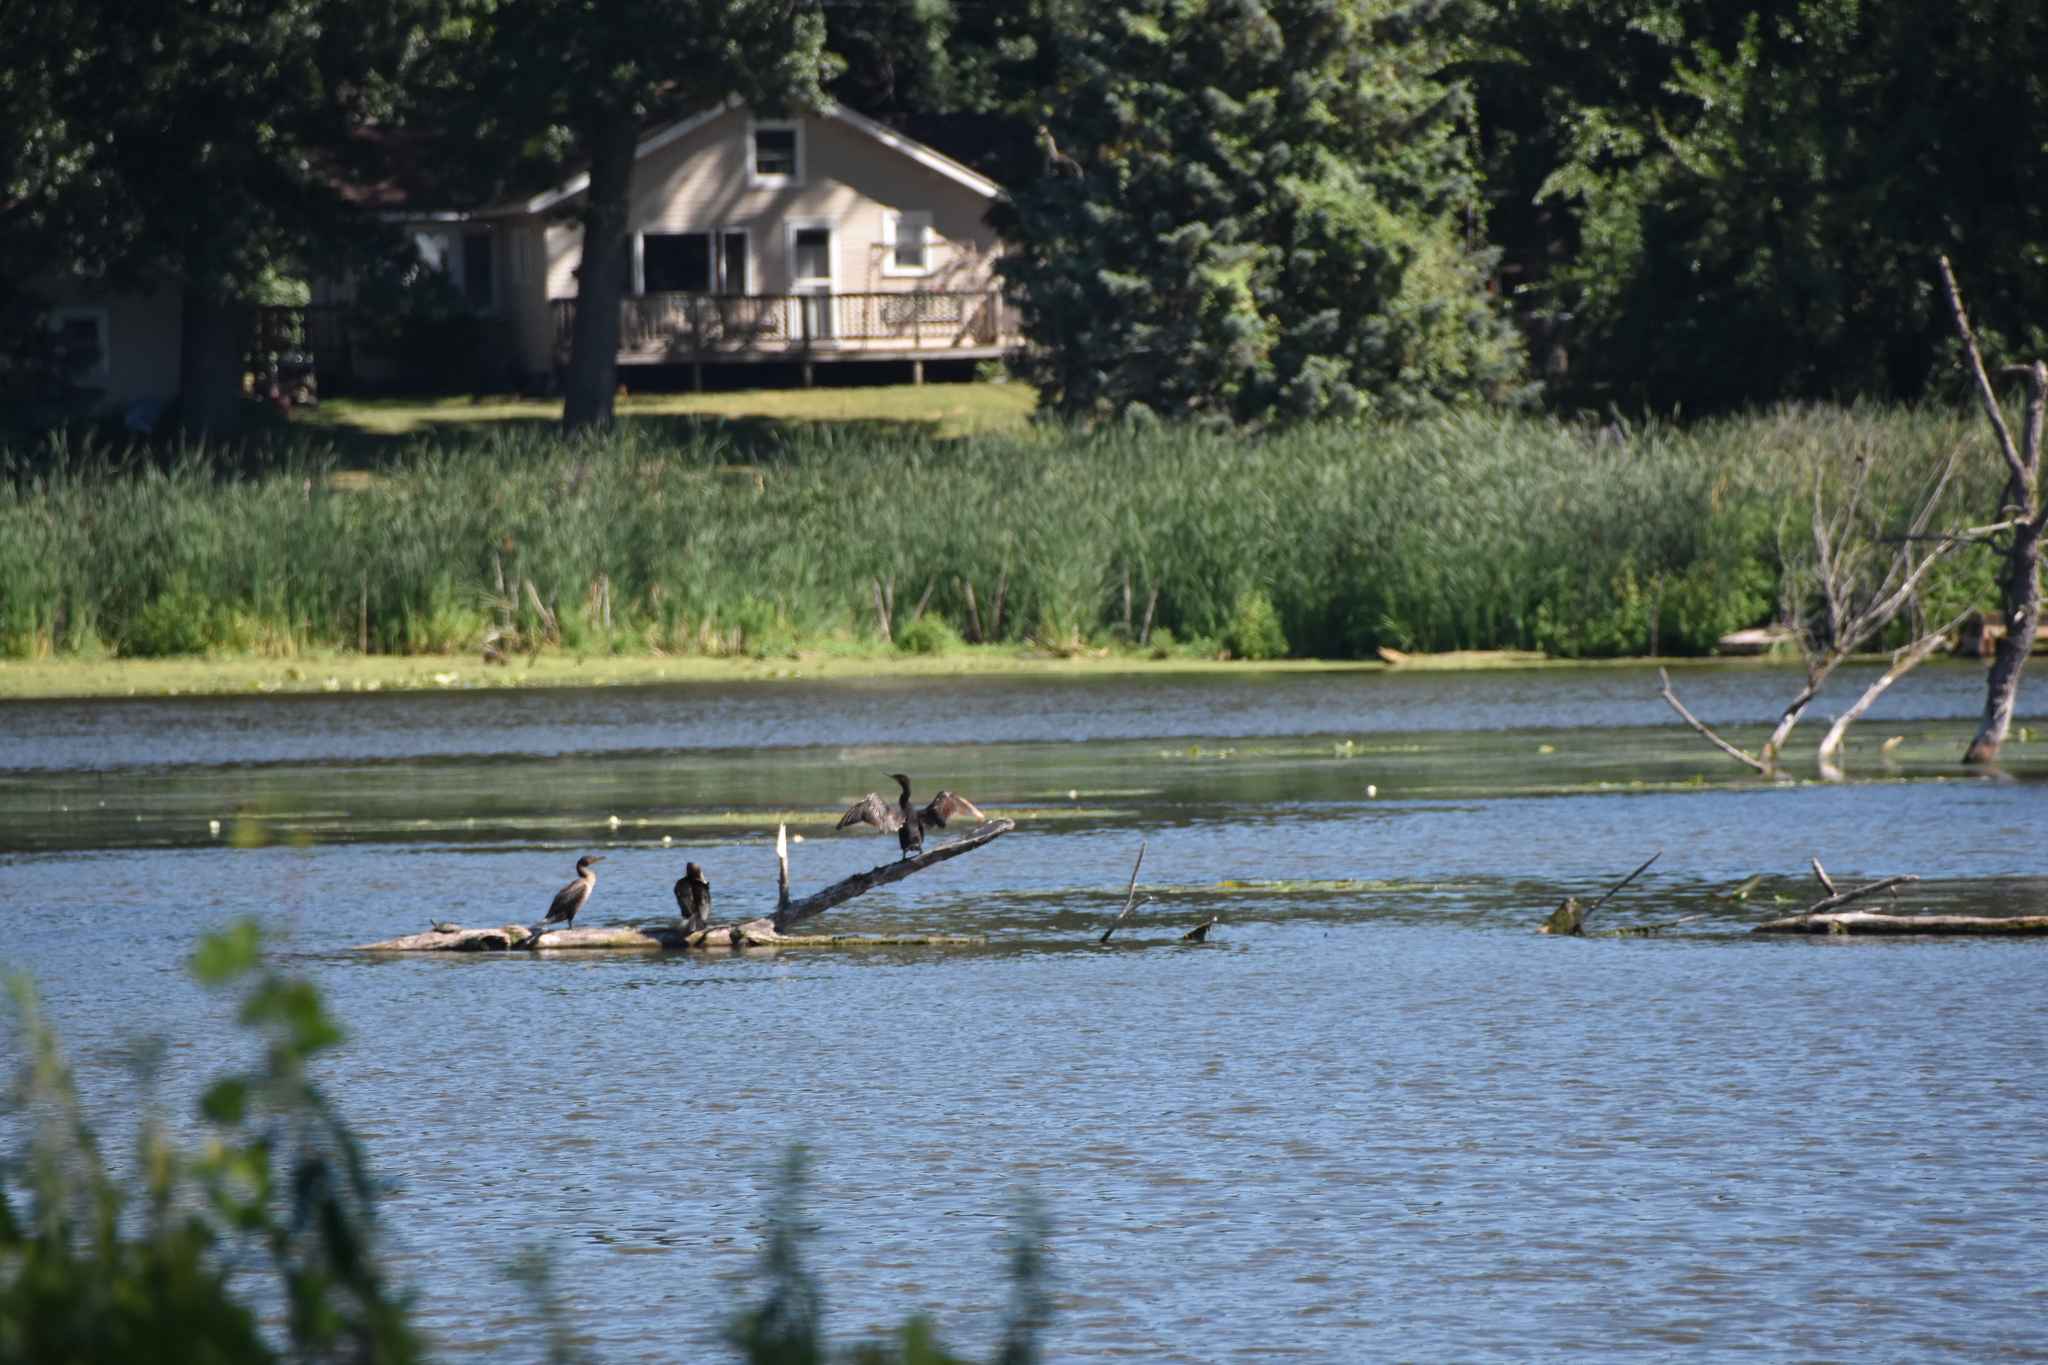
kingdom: Animalia
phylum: Chordata
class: Aves
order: Suliformes
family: Phalacrocoracidae
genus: Phalacrocorax
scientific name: Phalacrocorax auritus
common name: Double-crested cormorant
